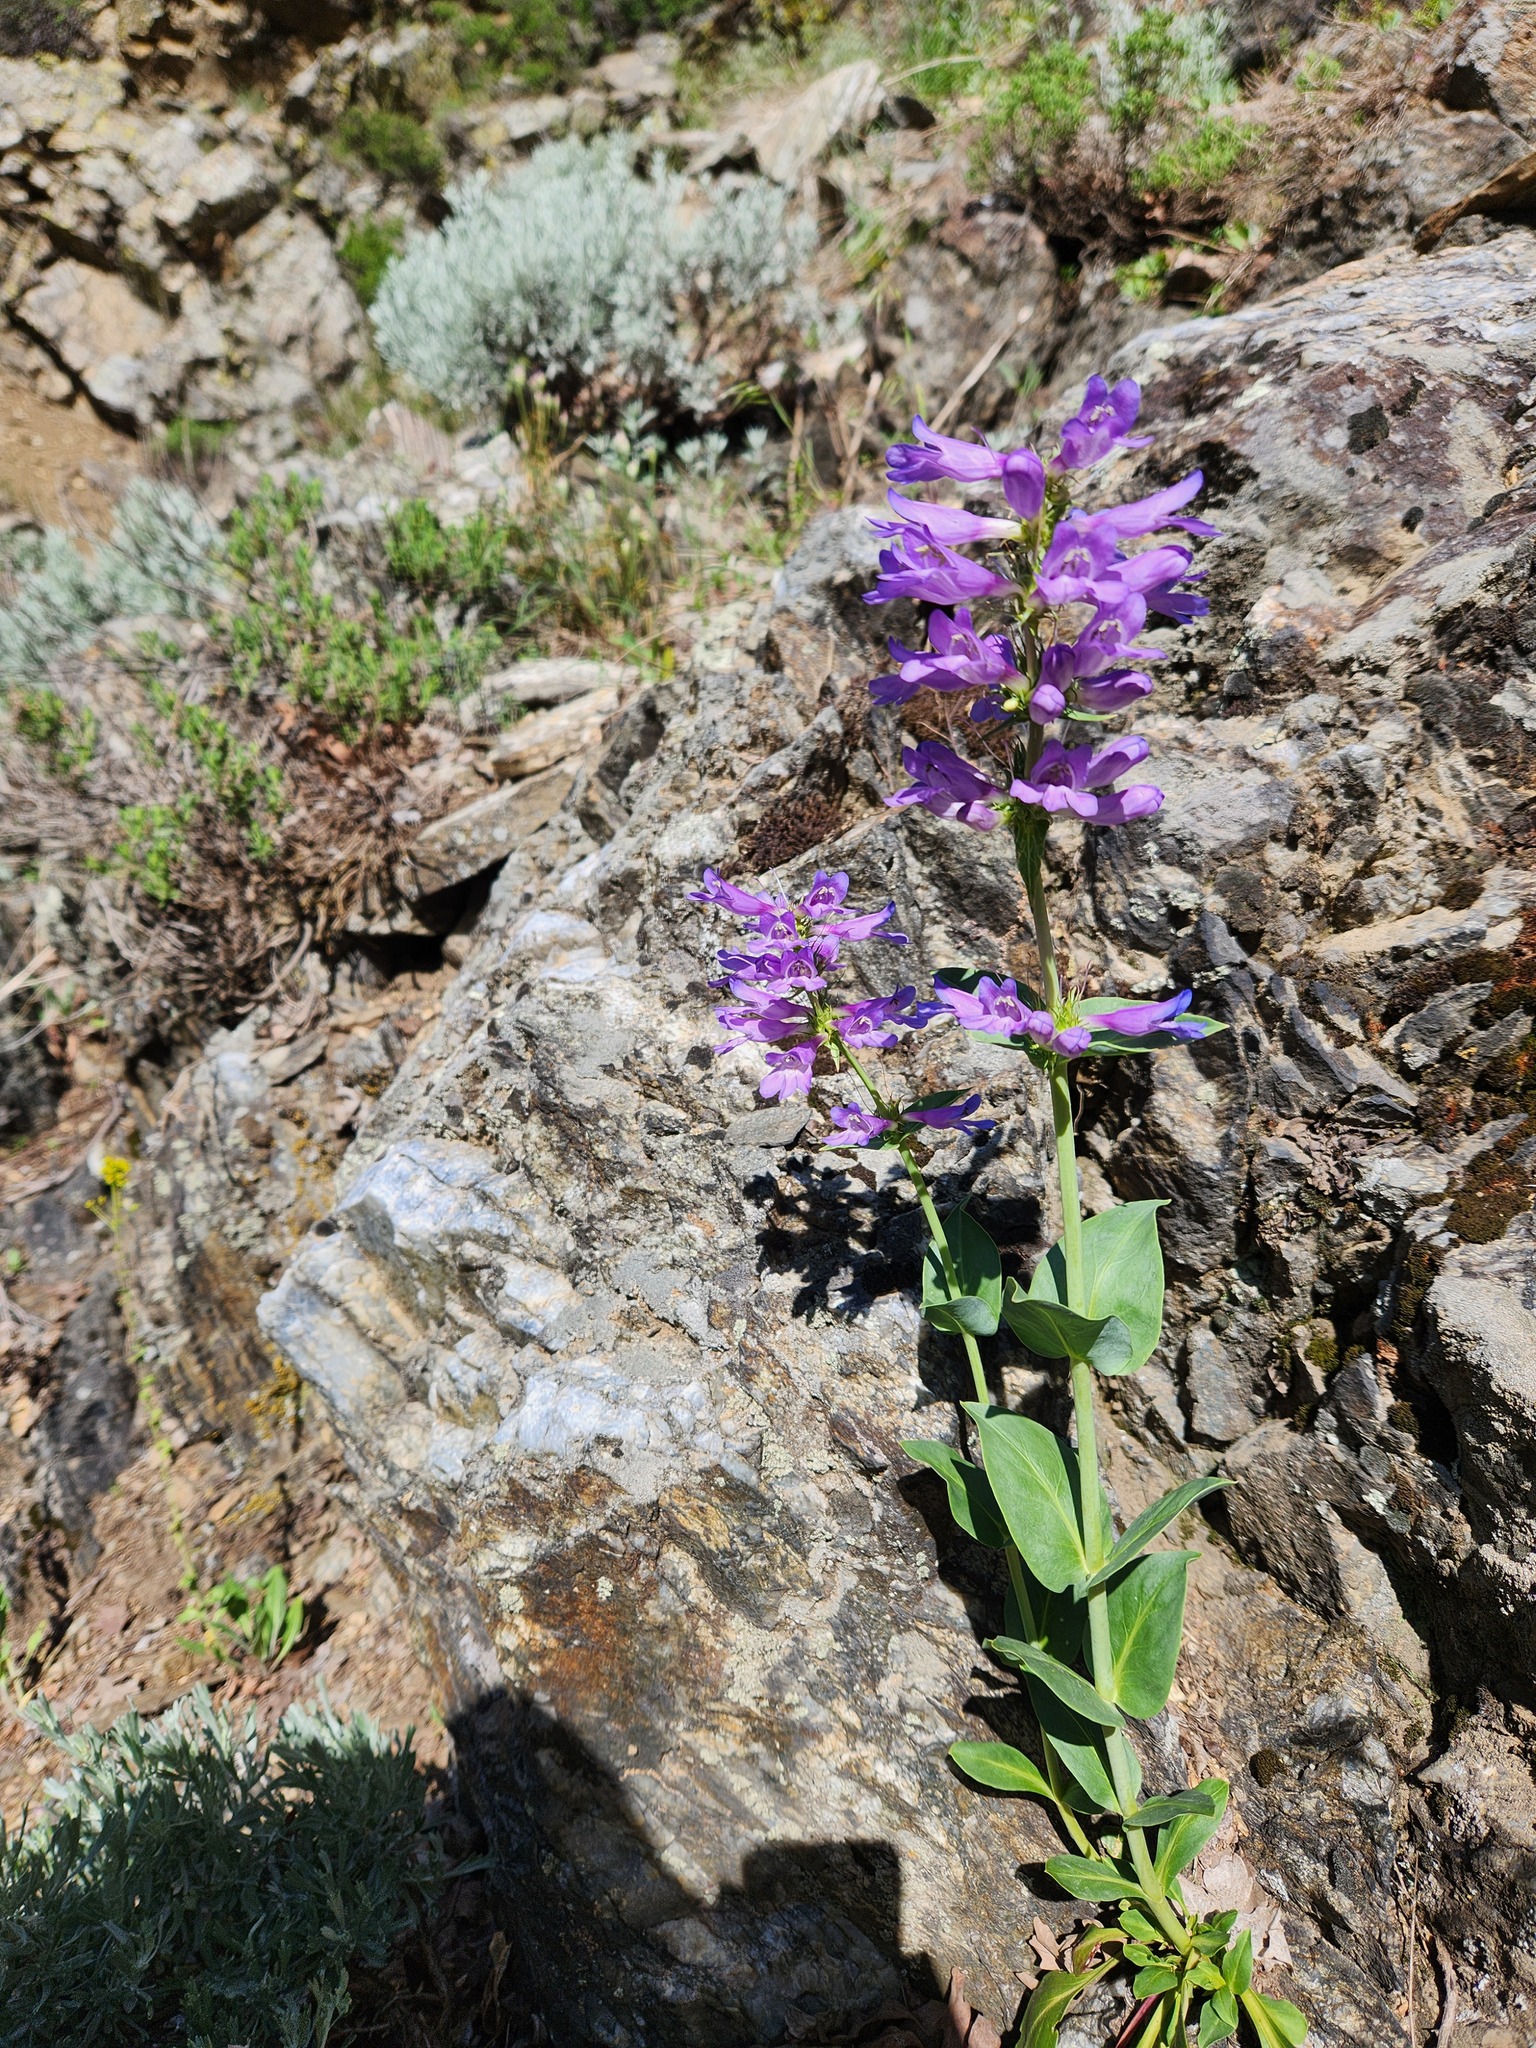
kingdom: Plantae
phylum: Tracheophyta
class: Magnoliopsida
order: Lamiales
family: Plantaginaceae
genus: Penstemon
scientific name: Penstemon cyananthus
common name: Wasatch penstemon
